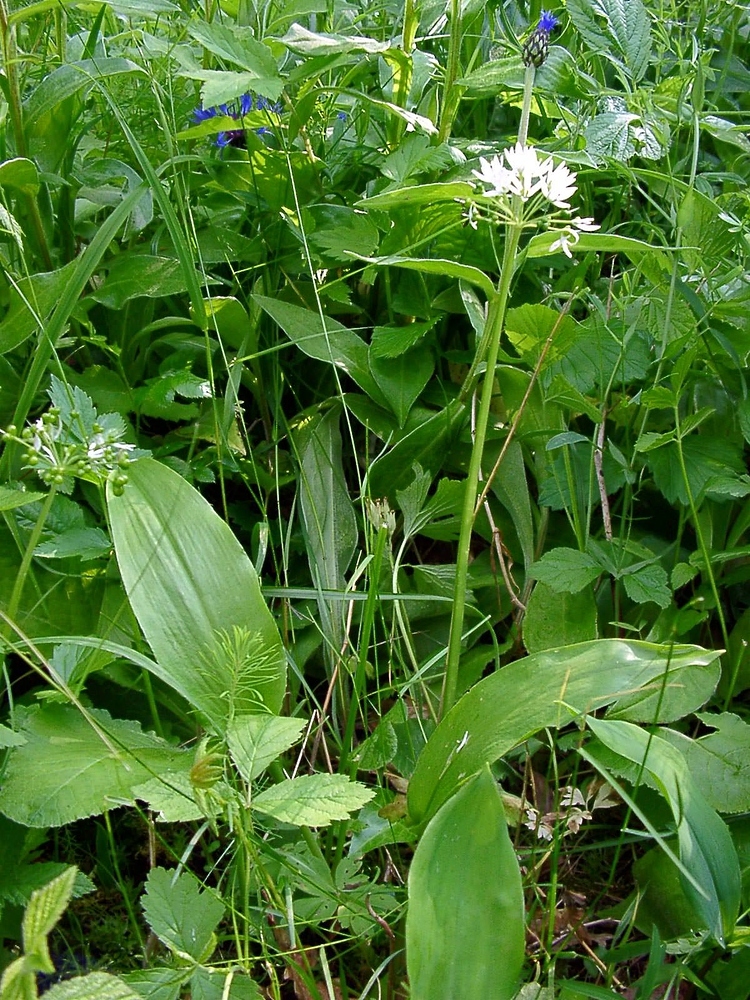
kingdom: Plantae
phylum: Tracheophyta
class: Liliopsida
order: Asparagales
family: Amaryllidaceae
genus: Allium
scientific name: Allium ursinum
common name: Ramsons
